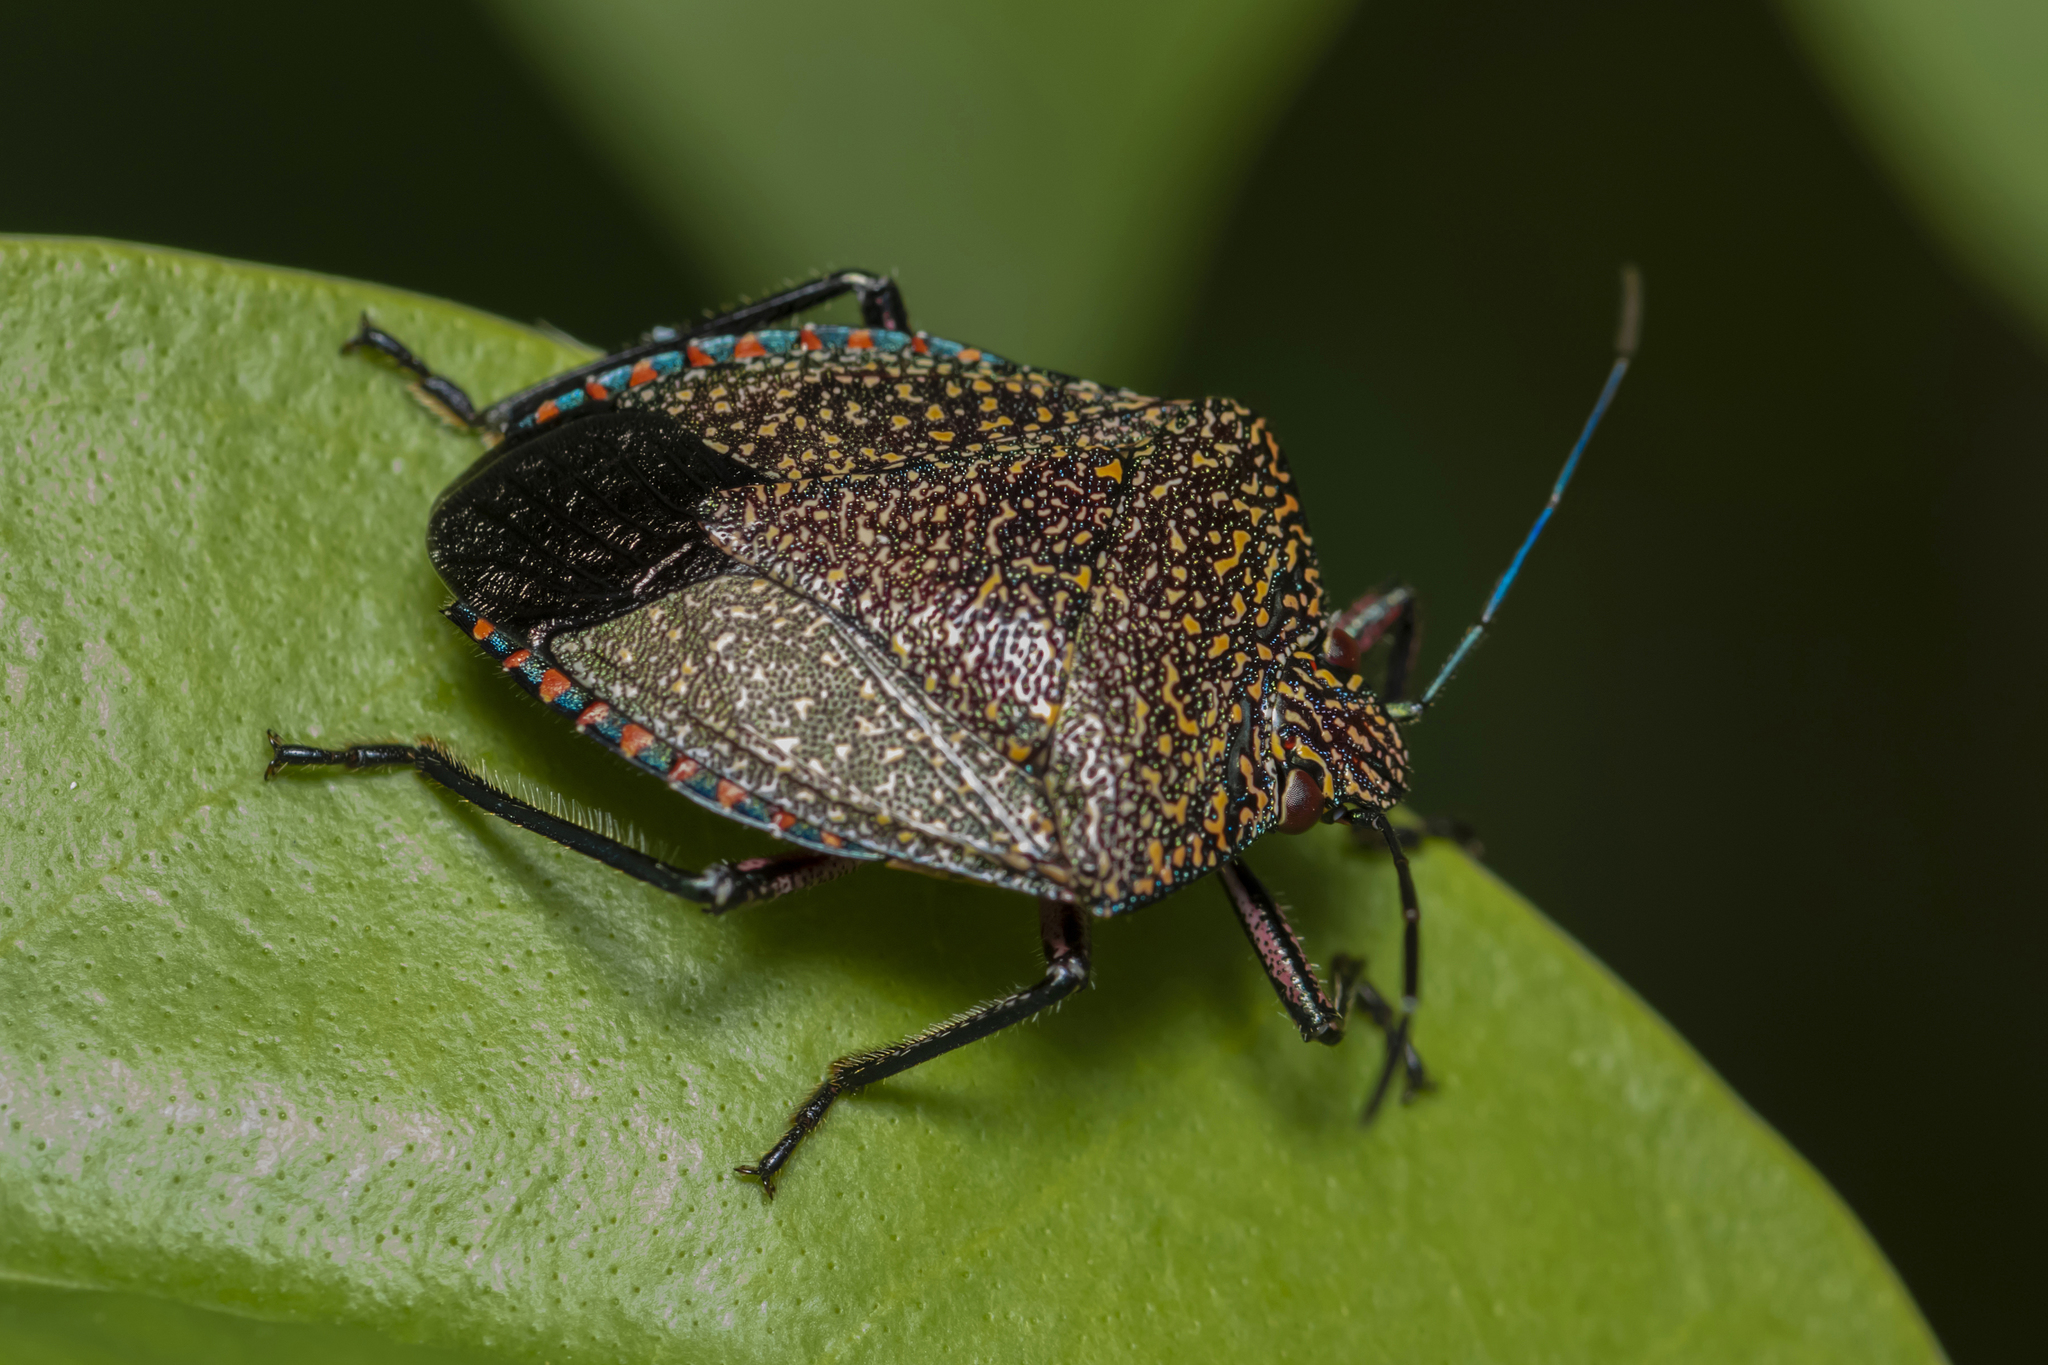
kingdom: Animalia
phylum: Arthropoda
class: Insecta
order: Hemiptera
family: Pentatomidae
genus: Pellaea
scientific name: Pellaea stictica
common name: Stink bug
